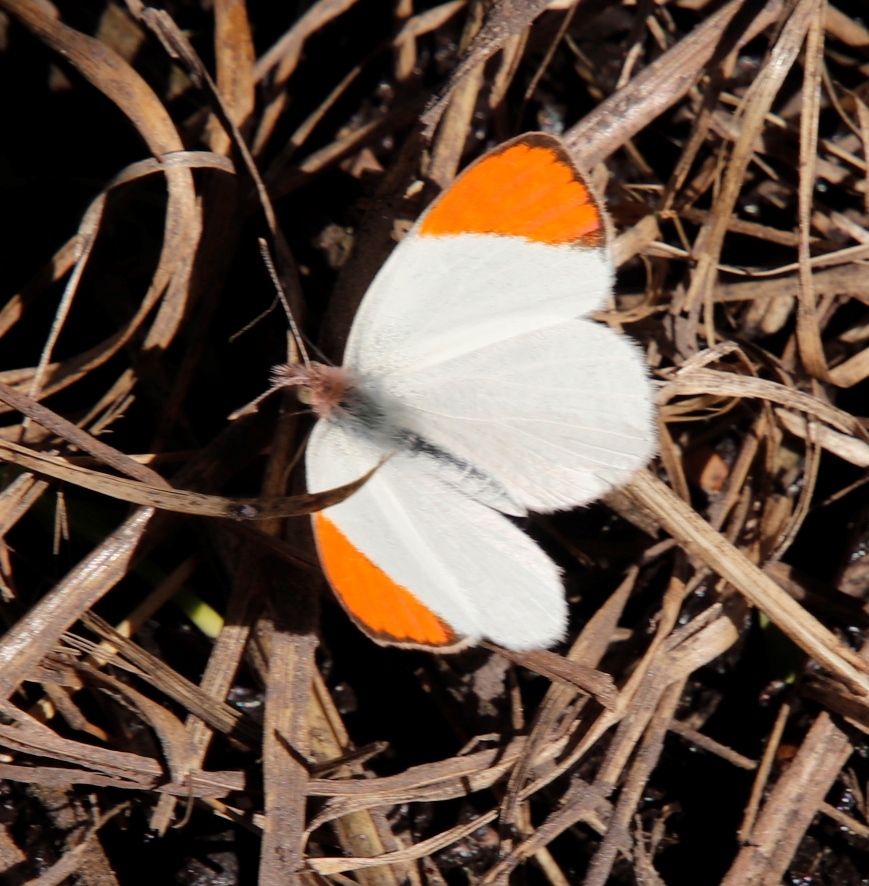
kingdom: Animalia
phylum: Arthropoda
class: Insecta
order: Lepidoptera
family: Pieridae
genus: Colotis
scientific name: Colotis evenina
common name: Common orange tip
